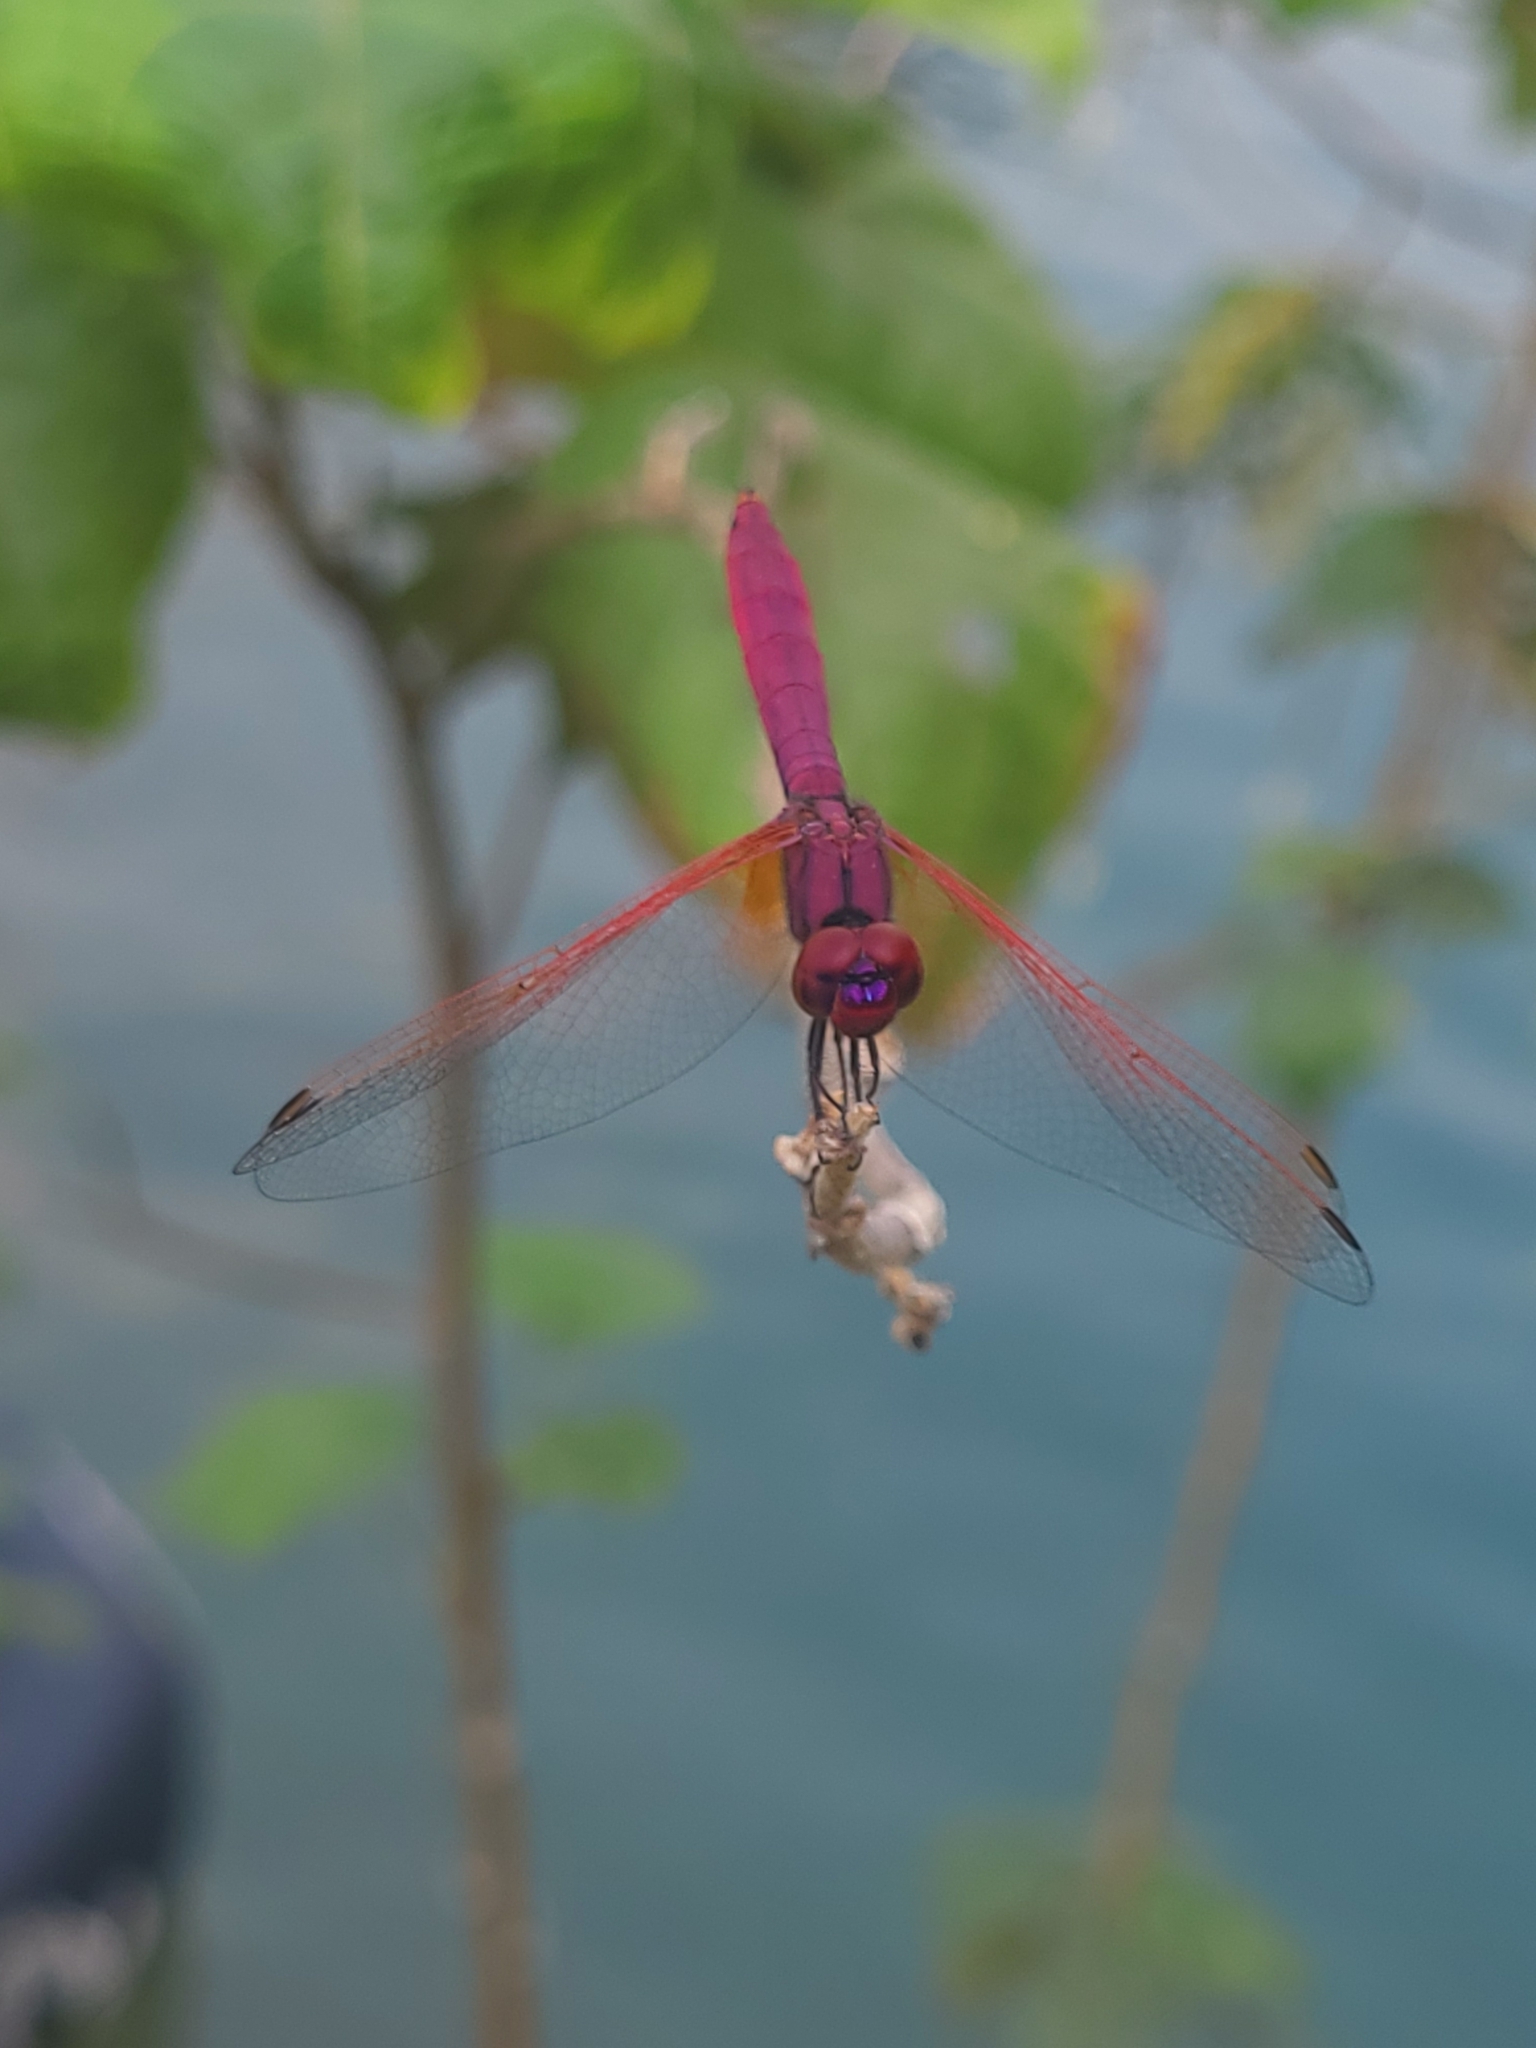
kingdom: Animalia
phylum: Arthropoda
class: Insecta
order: Odonata
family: Libellulidae
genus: Trithemis
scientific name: Trithemis aurora
